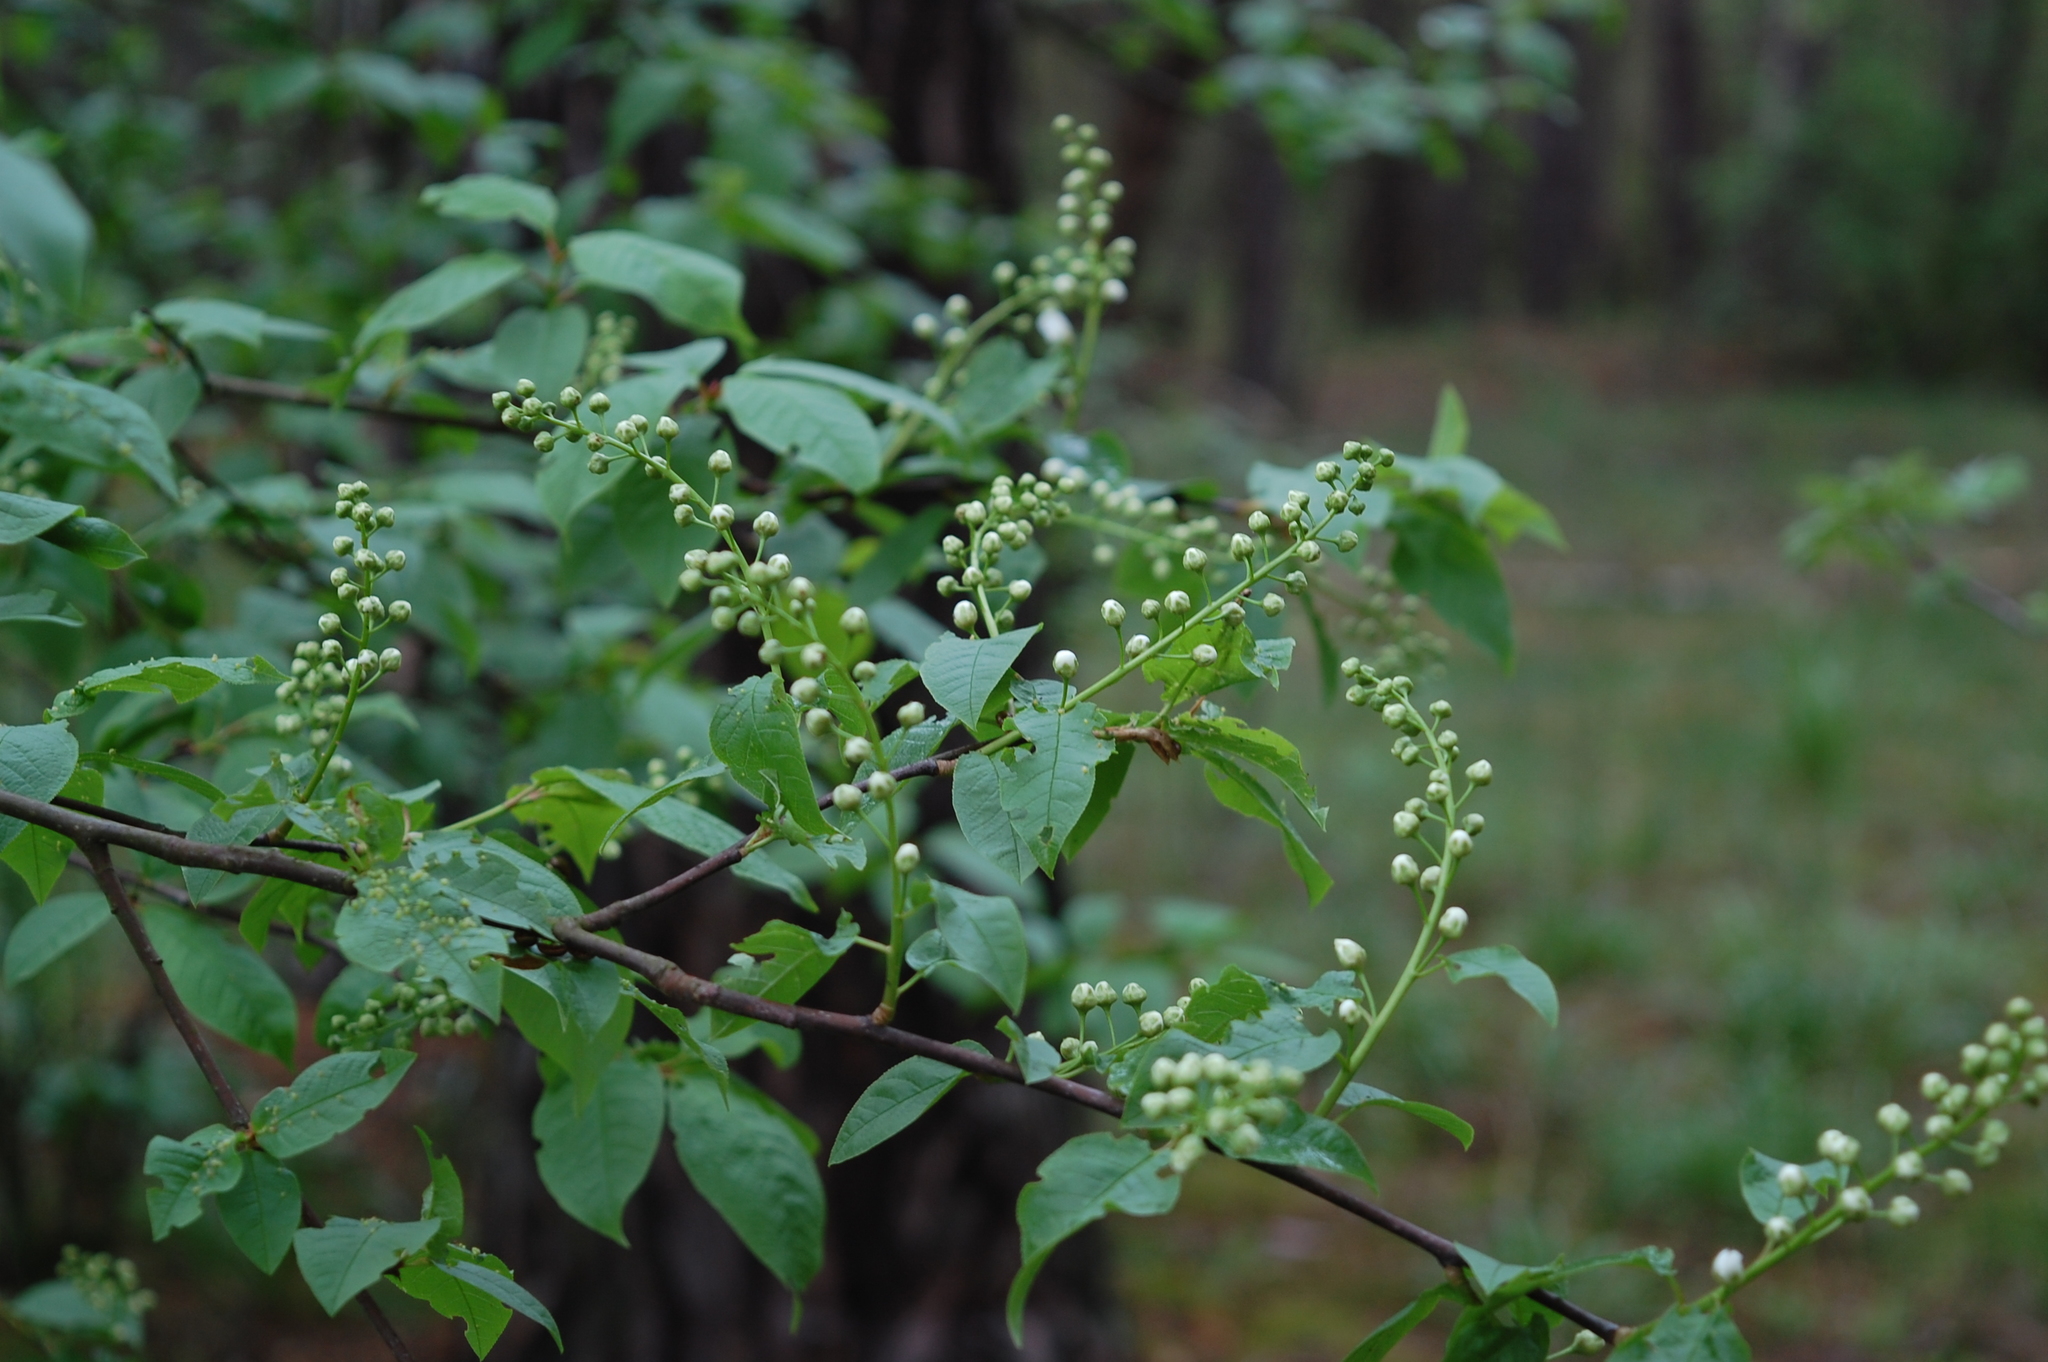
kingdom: Plantae
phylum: Tracheophyta
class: Magnoliopsida
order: Rosales
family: Rosaceae
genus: Prunus
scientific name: Prunus padus
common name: Bird cherry
